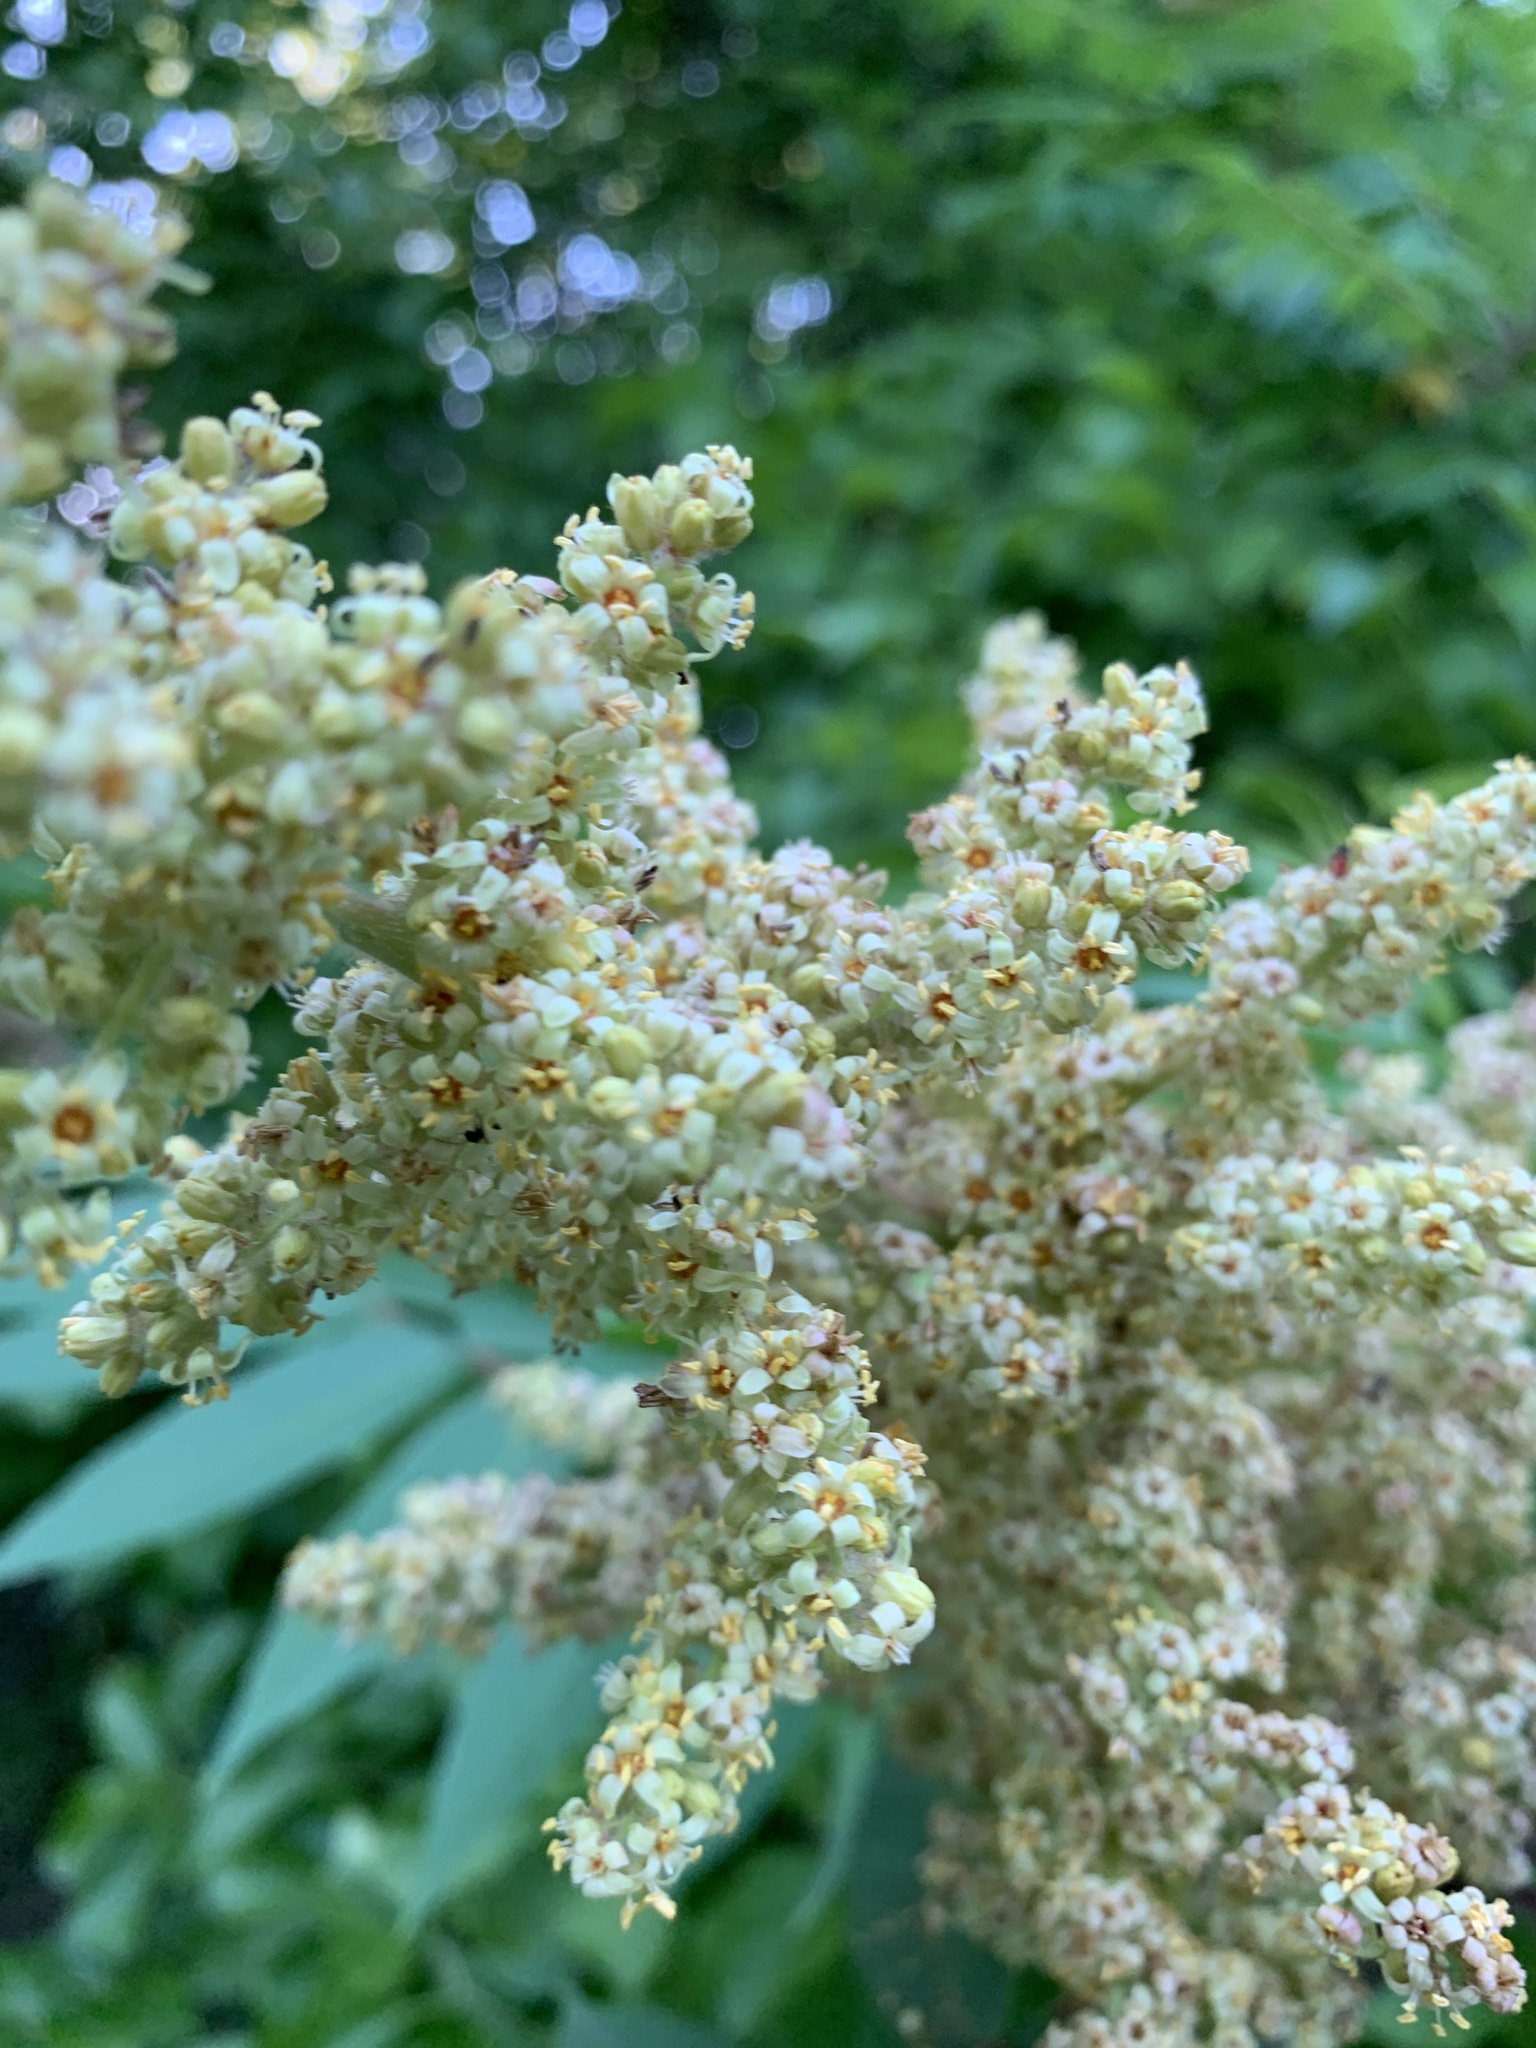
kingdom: Plantae
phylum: Tracheophyta
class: Magnoliopsida
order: Sapindales
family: Anacardiaceae
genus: Rhus
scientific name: Rhus typhina
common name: Staghorn sumac
